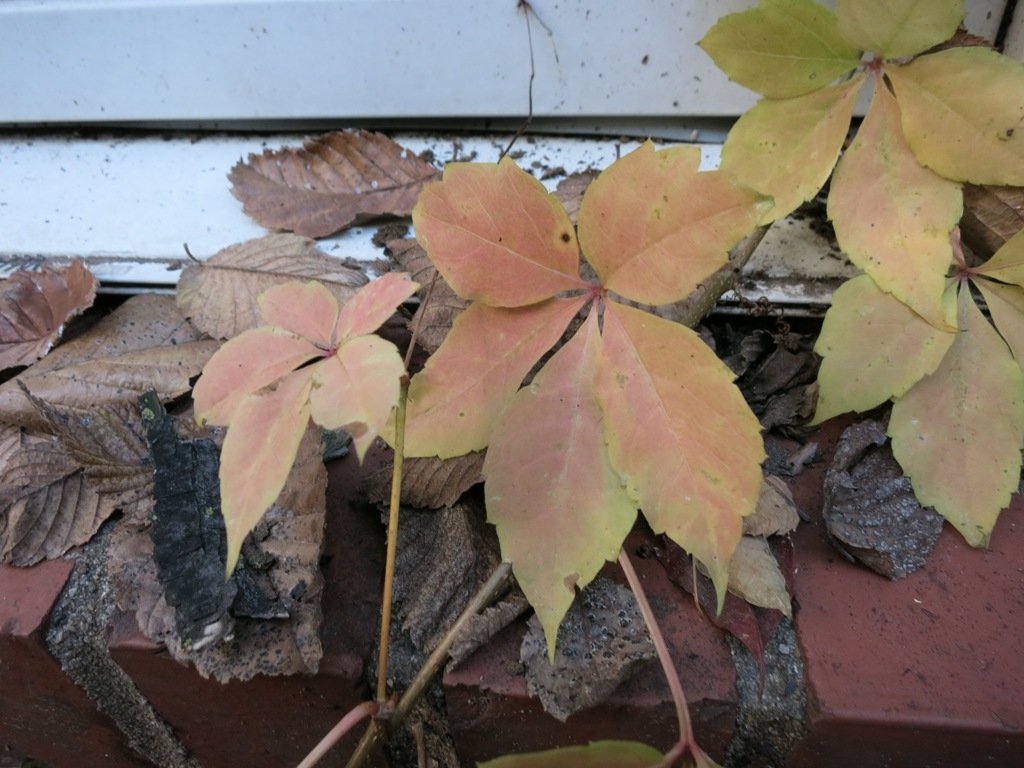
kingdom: Plantae
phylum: Tracheophyta
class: Magnoliopsida
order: Vitales
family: Vitaceae
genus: Parthenocissus
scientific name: Parthenocissus quinquefolia
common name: Virginia-creeper
